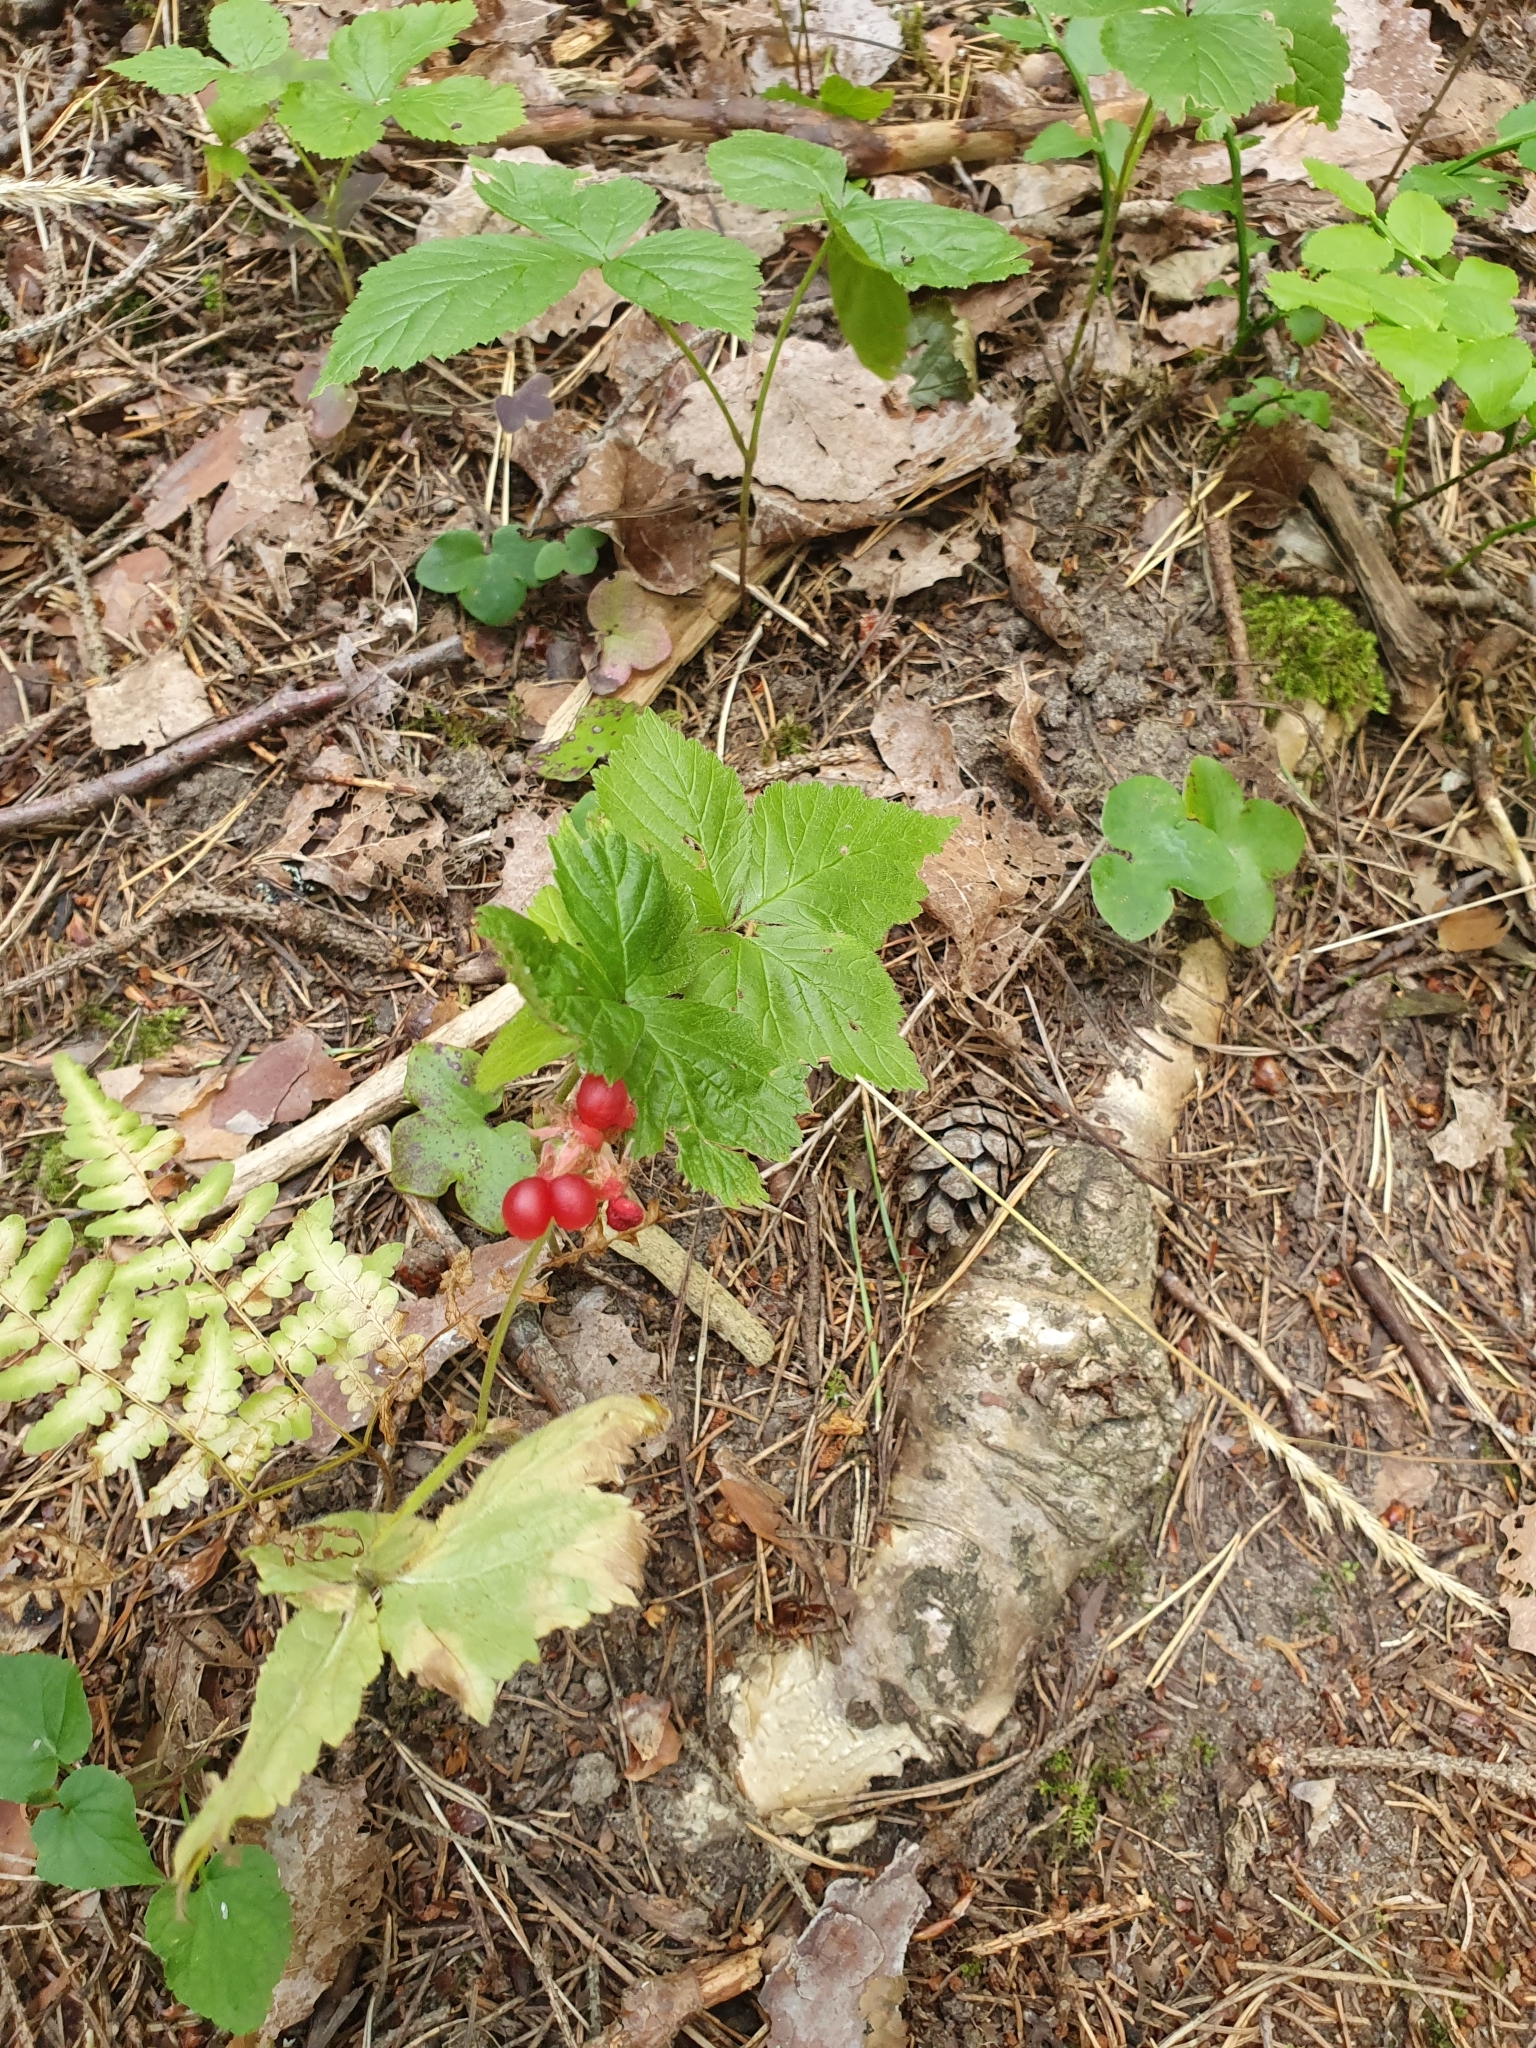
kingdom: Plantae
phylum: Tracheophyta
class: Magnoliopsida
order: Rosales
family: Rosaceae
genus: Rubus
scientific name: Rubus saxatilis
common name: Stone bramble
